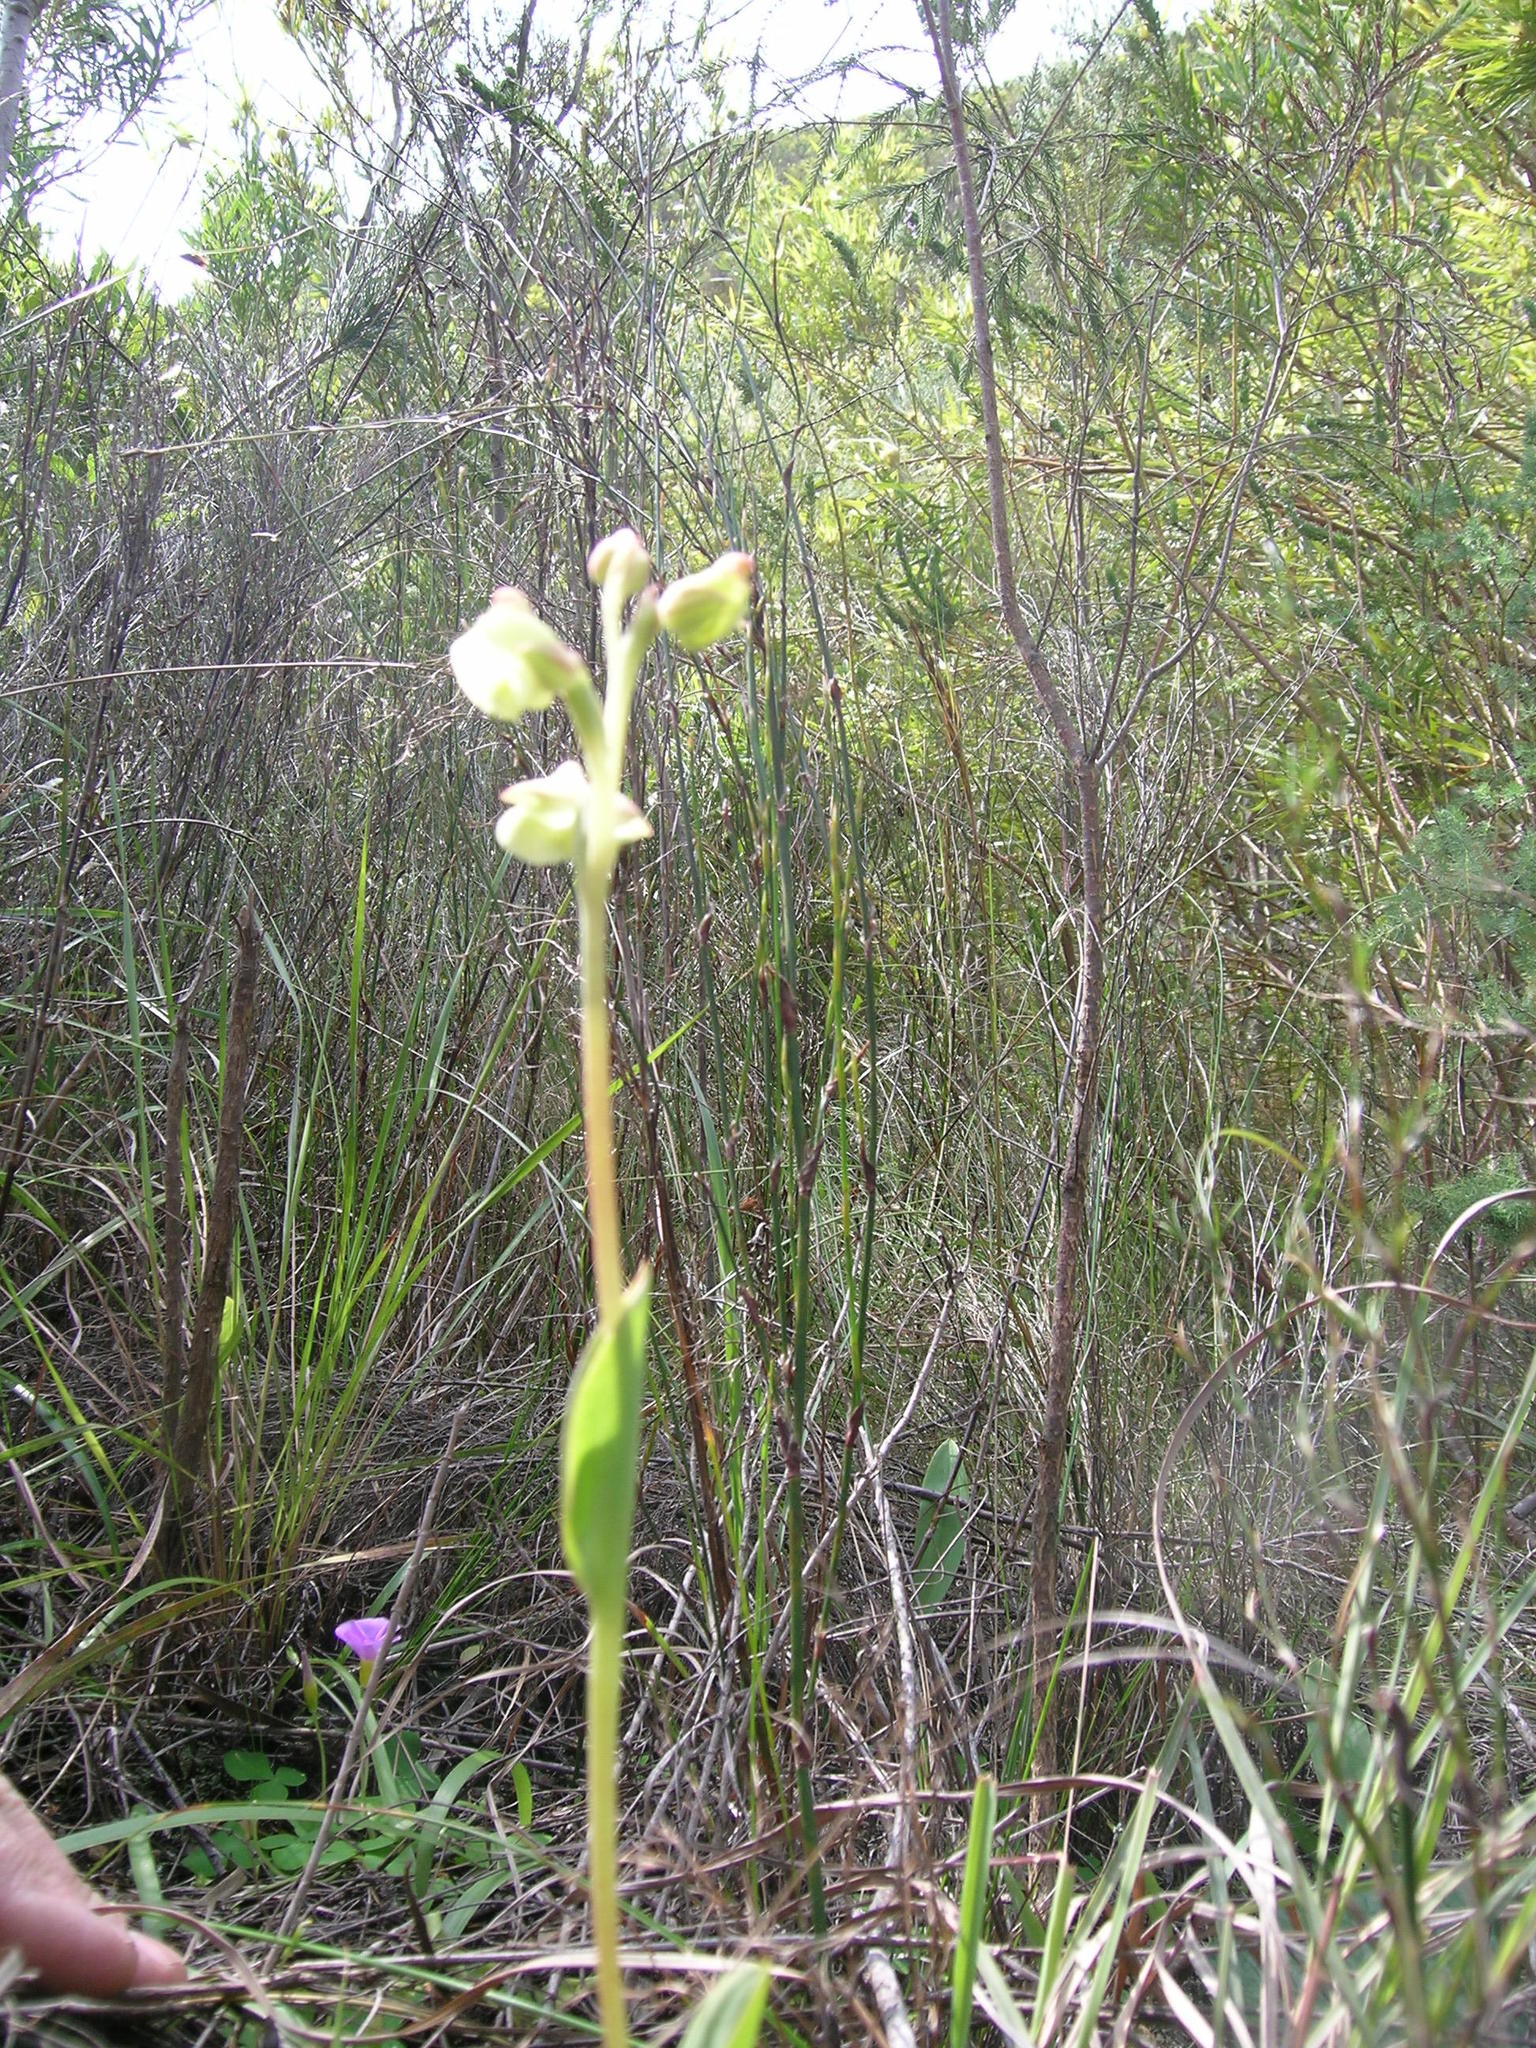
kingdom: Plantae
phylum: Tracheophyta
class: Liliopsida
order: Asparagales
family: Orchidaceae
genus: Pterygodium
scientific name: Pterygodium catholicum
